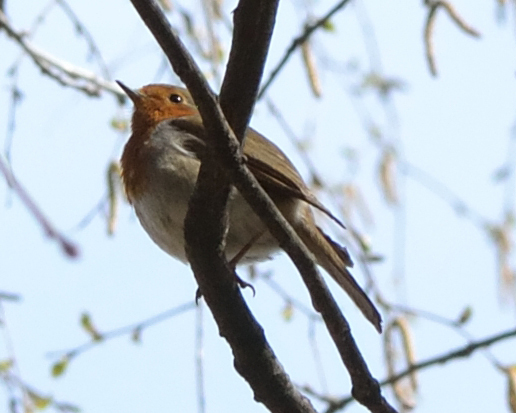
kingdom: Animalia
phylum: Chordata
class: Aves
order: Passeriformes
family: Muscicapidae
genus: Erithacus
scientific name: Erithacus rubecula
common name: European robin
